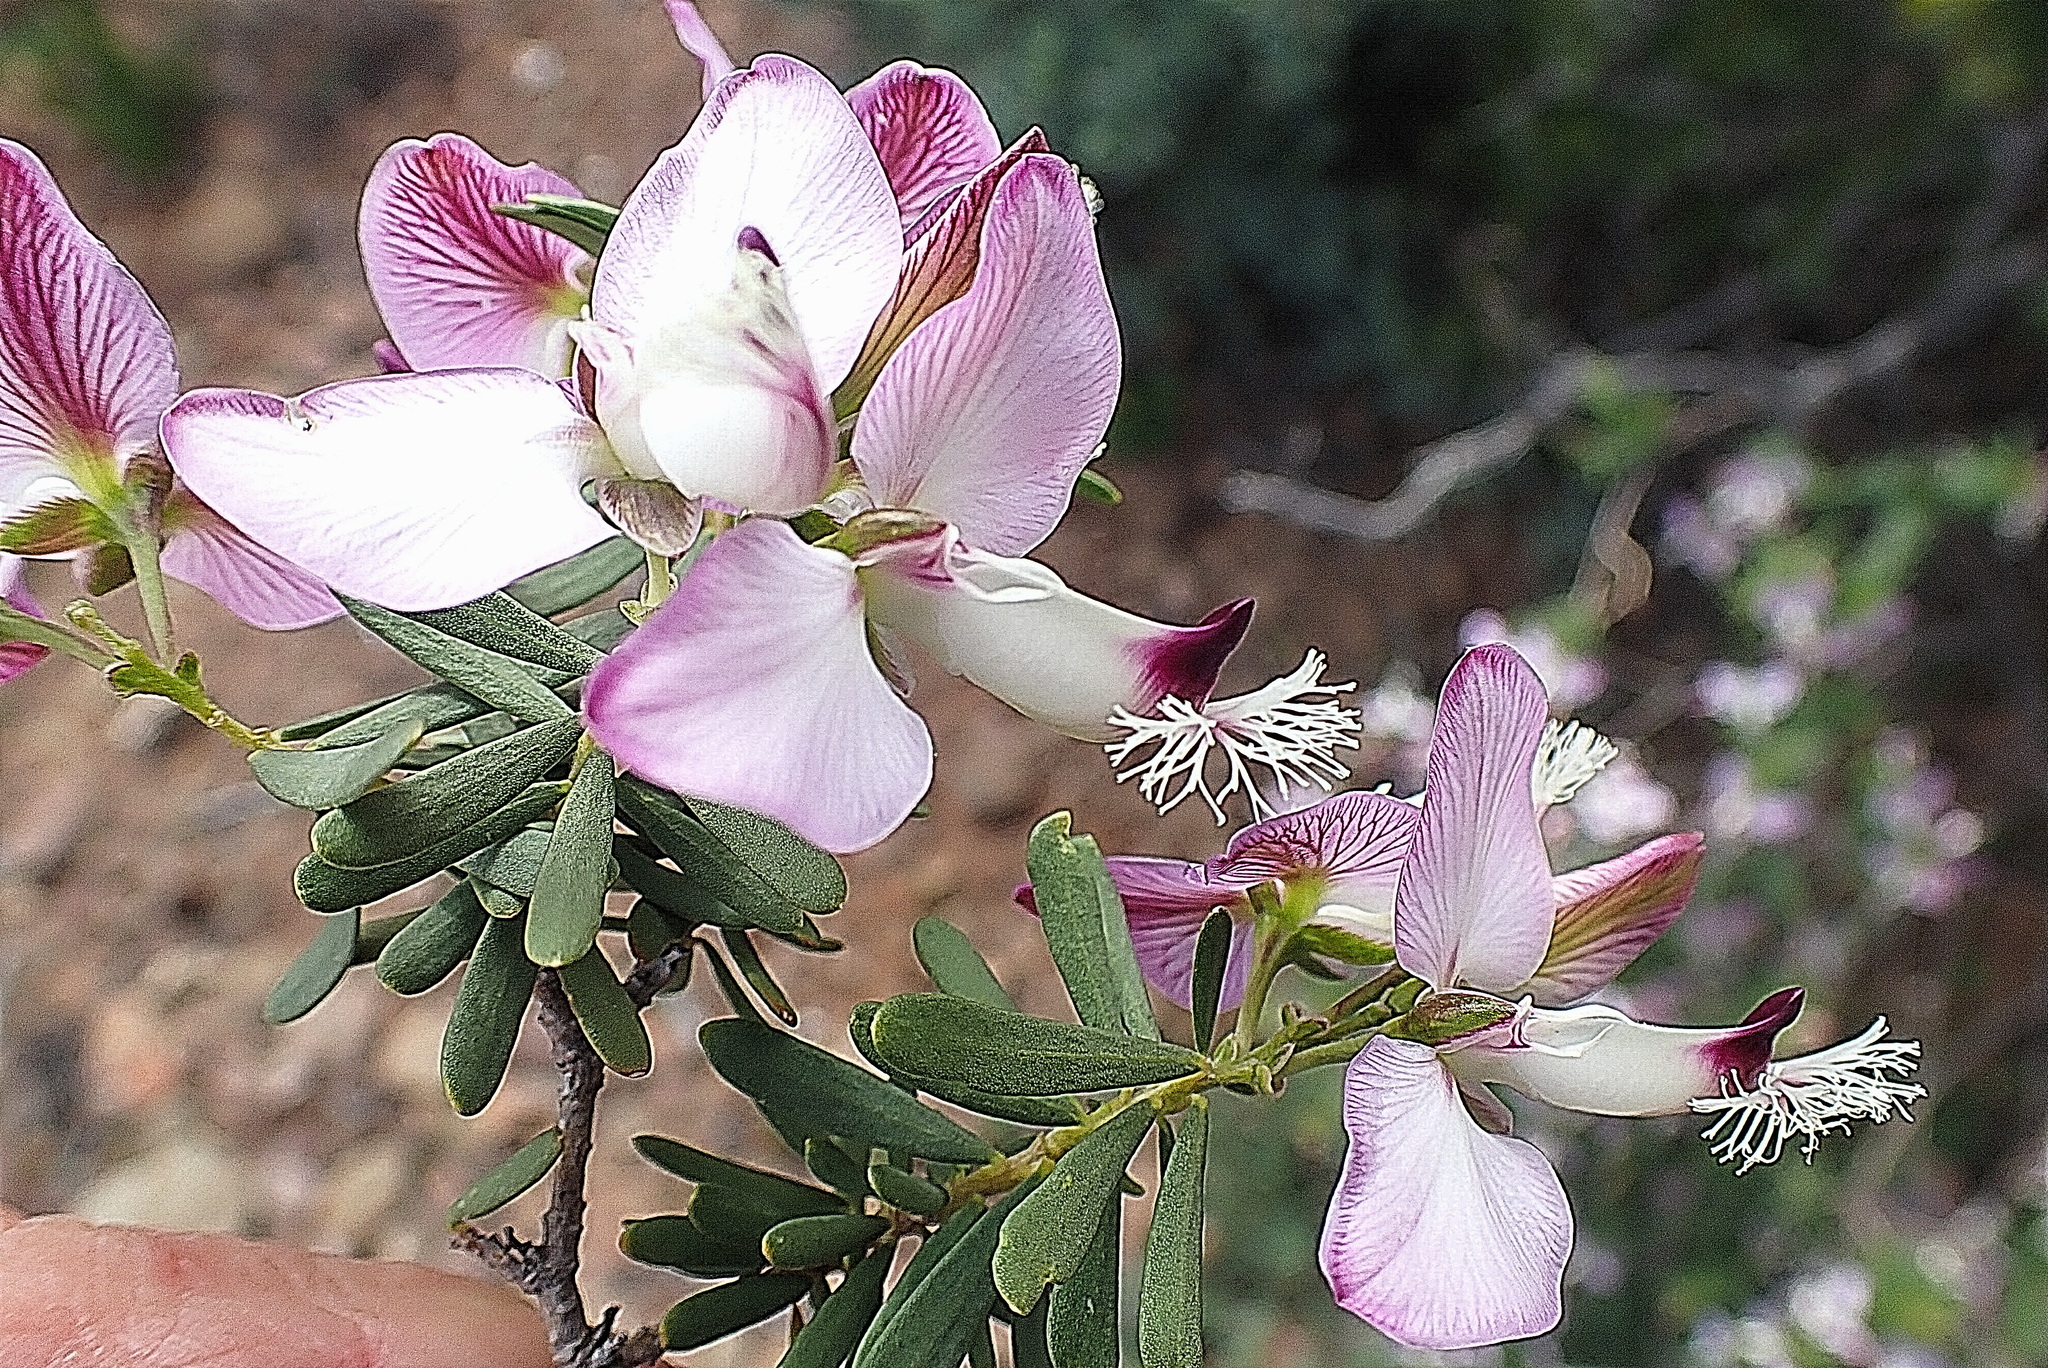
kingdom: Plantae
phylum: Tracheophyta
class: Magnoliopsida
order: Fabales
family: Polygalaceae
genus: Polygala
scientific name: Polygala myrtifolia
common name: Myrtle-leaf milkwort
